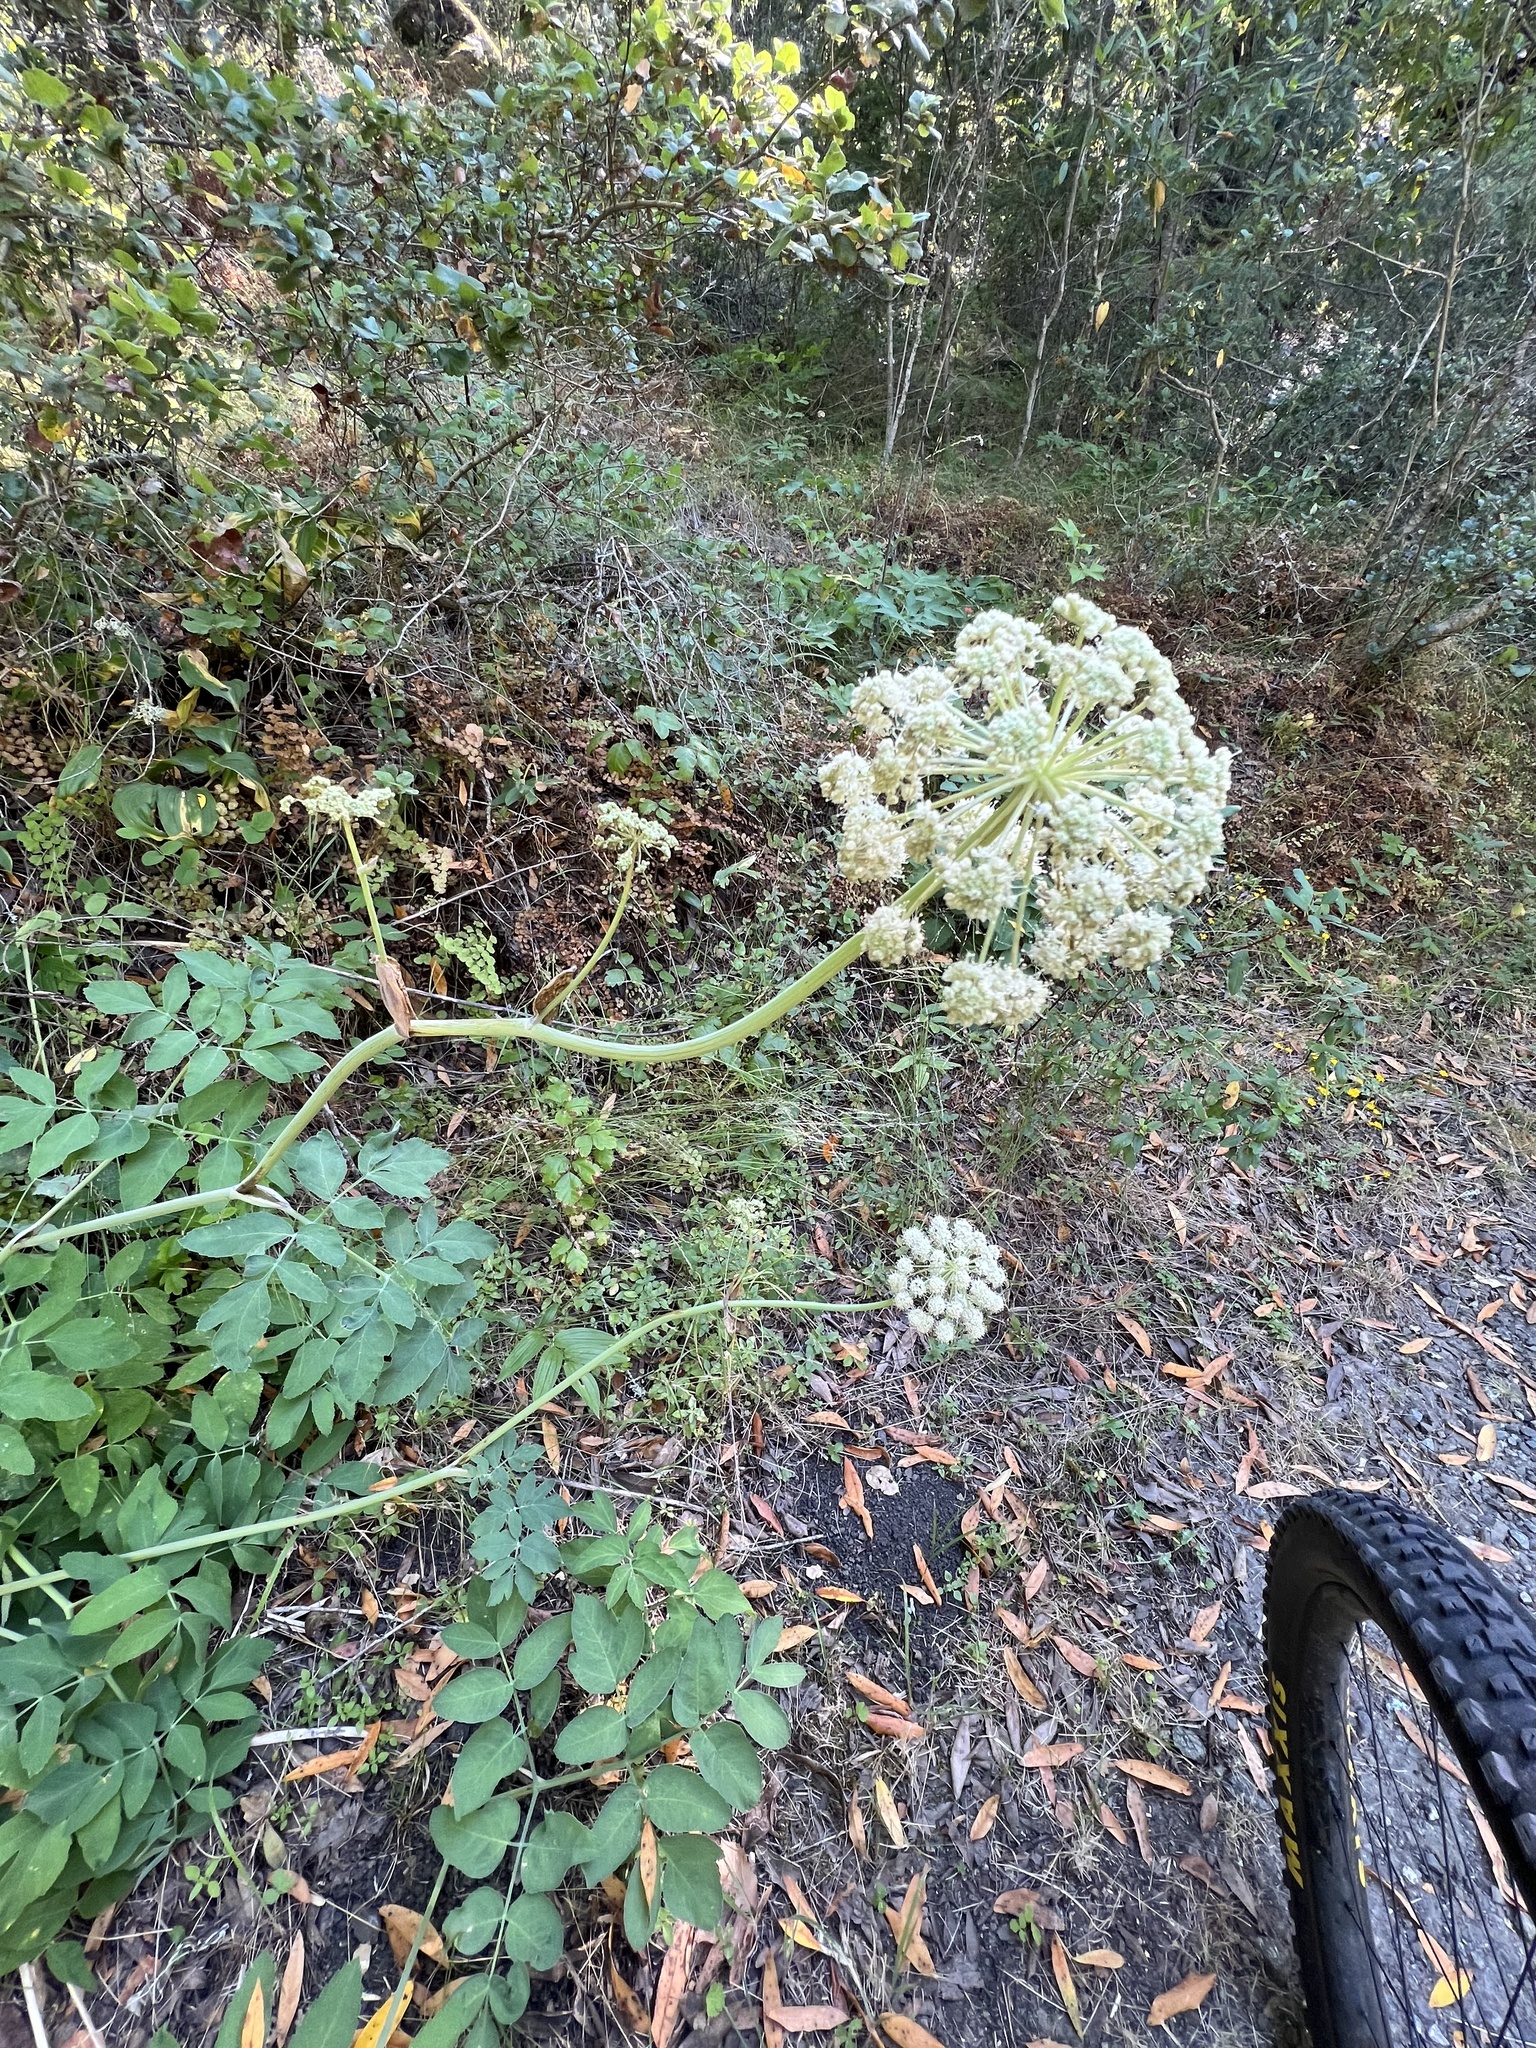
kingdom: Plantae
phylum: Tracheophyta
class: Magnoliopsida
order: Apiales
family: Apiaceae
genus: Angelica
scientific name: Angelica tomentosa
